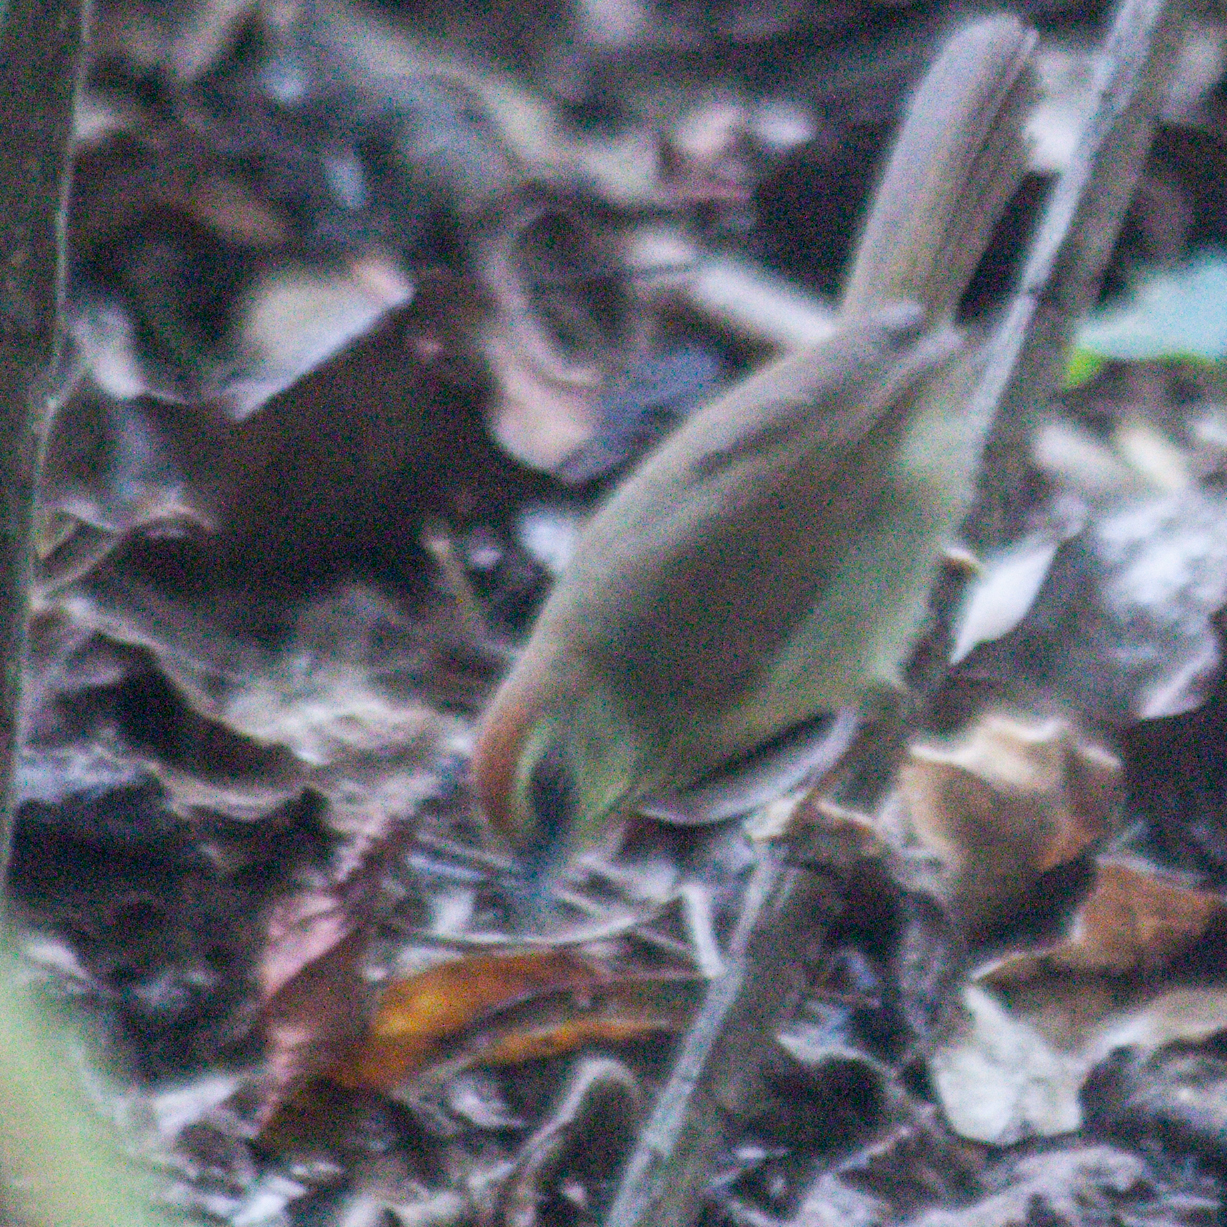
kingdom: Animalia
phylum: Chordata
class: Aves
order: Passeriformes
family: Timaliidae
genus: Macronus
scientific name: Macronus gularis
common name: Striped tit-babbler
